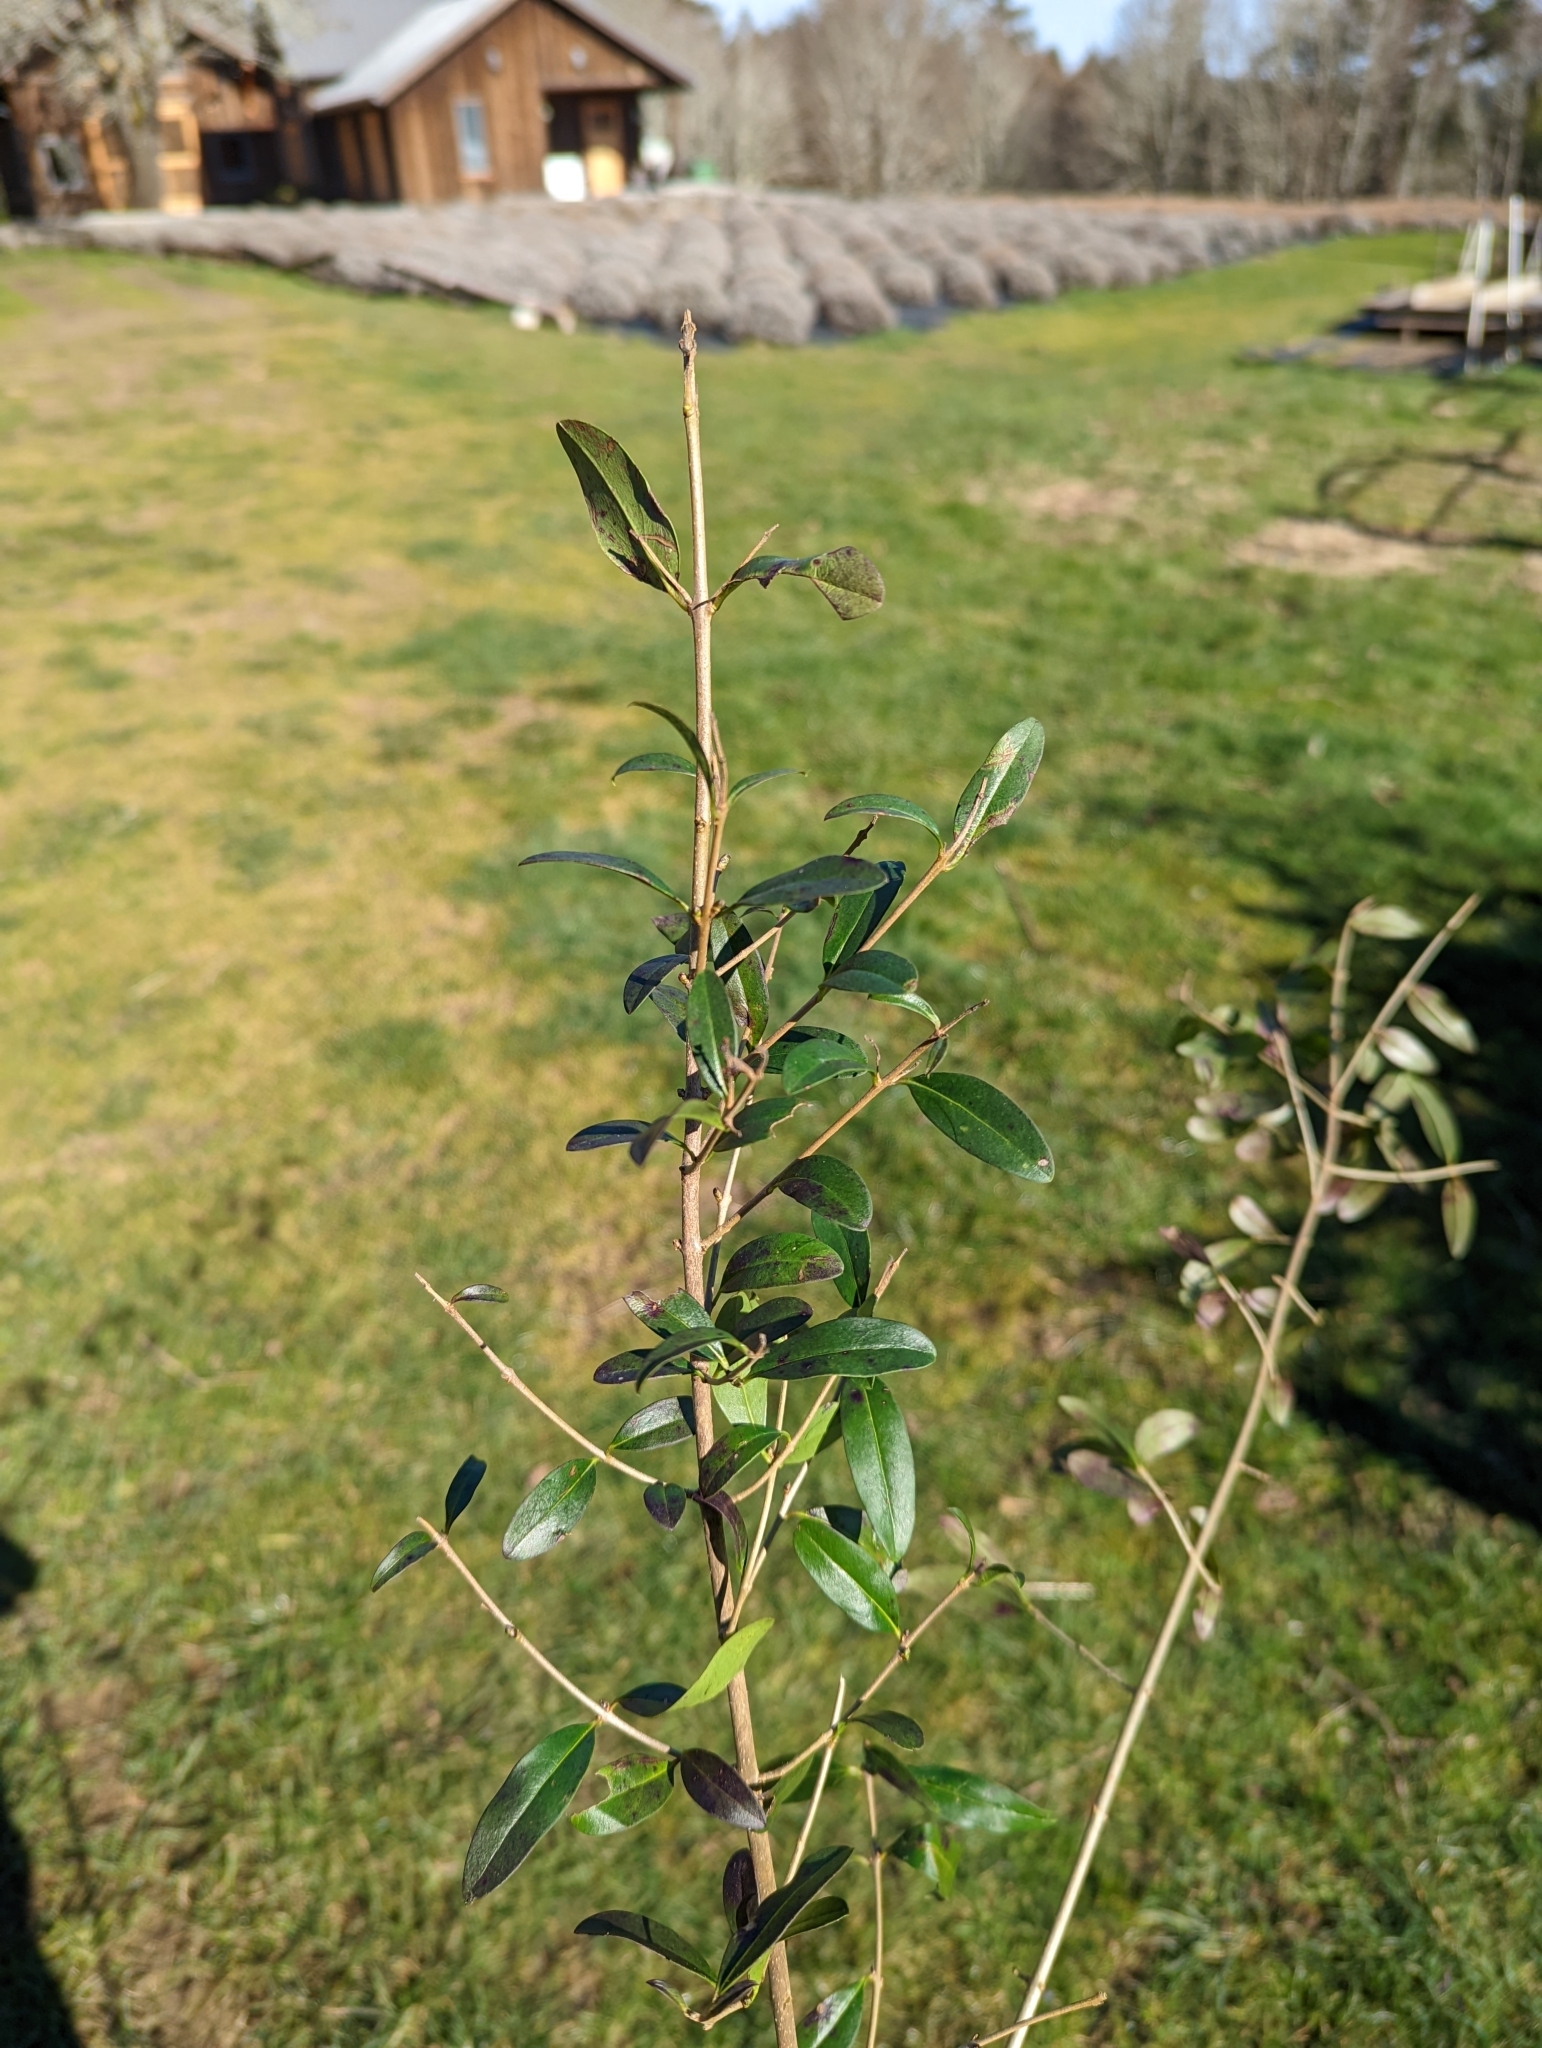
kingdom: Plantae
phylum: Tracheophyta
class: Magnoliopsida
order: Lamiales
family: Oleaceae
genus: Ligustrum
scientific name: Ligustrum vulgare
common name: Wild privet
